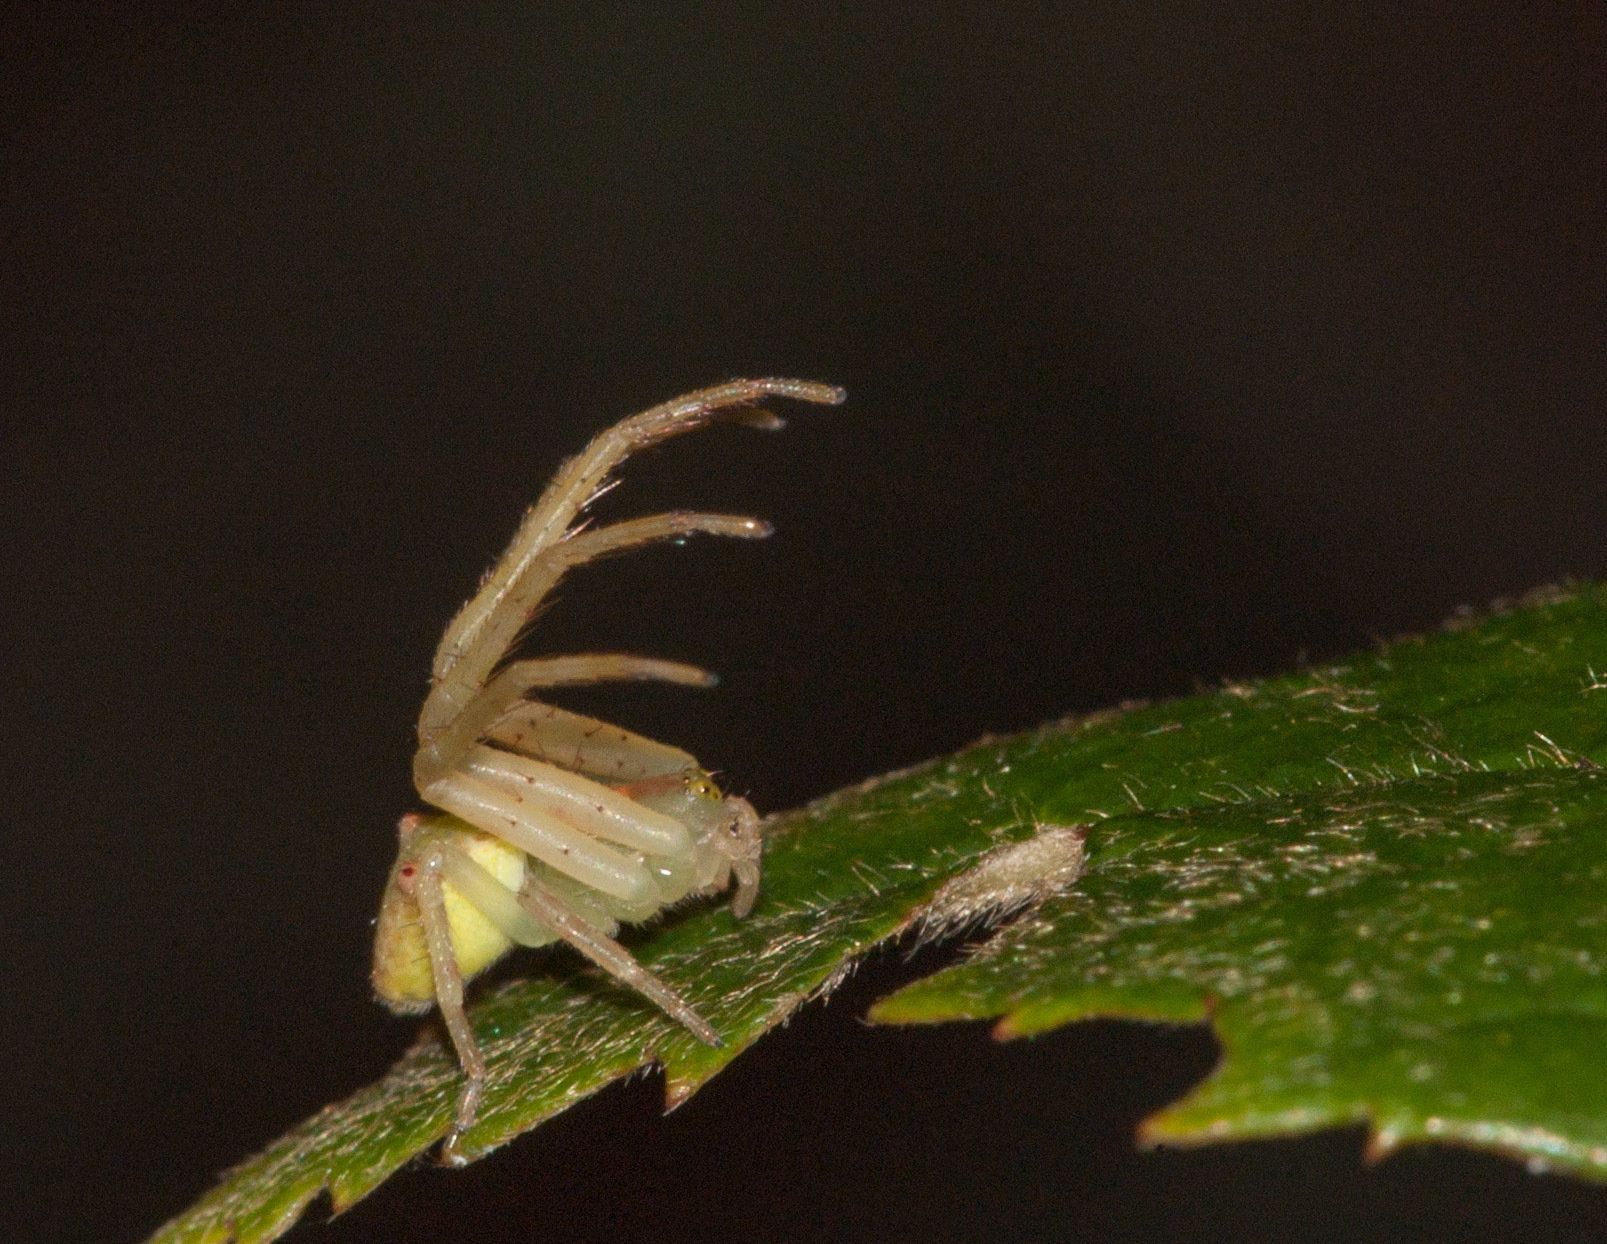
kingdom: Animalia
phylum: Arthropoda
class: Arachnida
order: Araneae
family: Thomisidae
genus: Sidymella
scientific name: Sidymella rubrosignata
